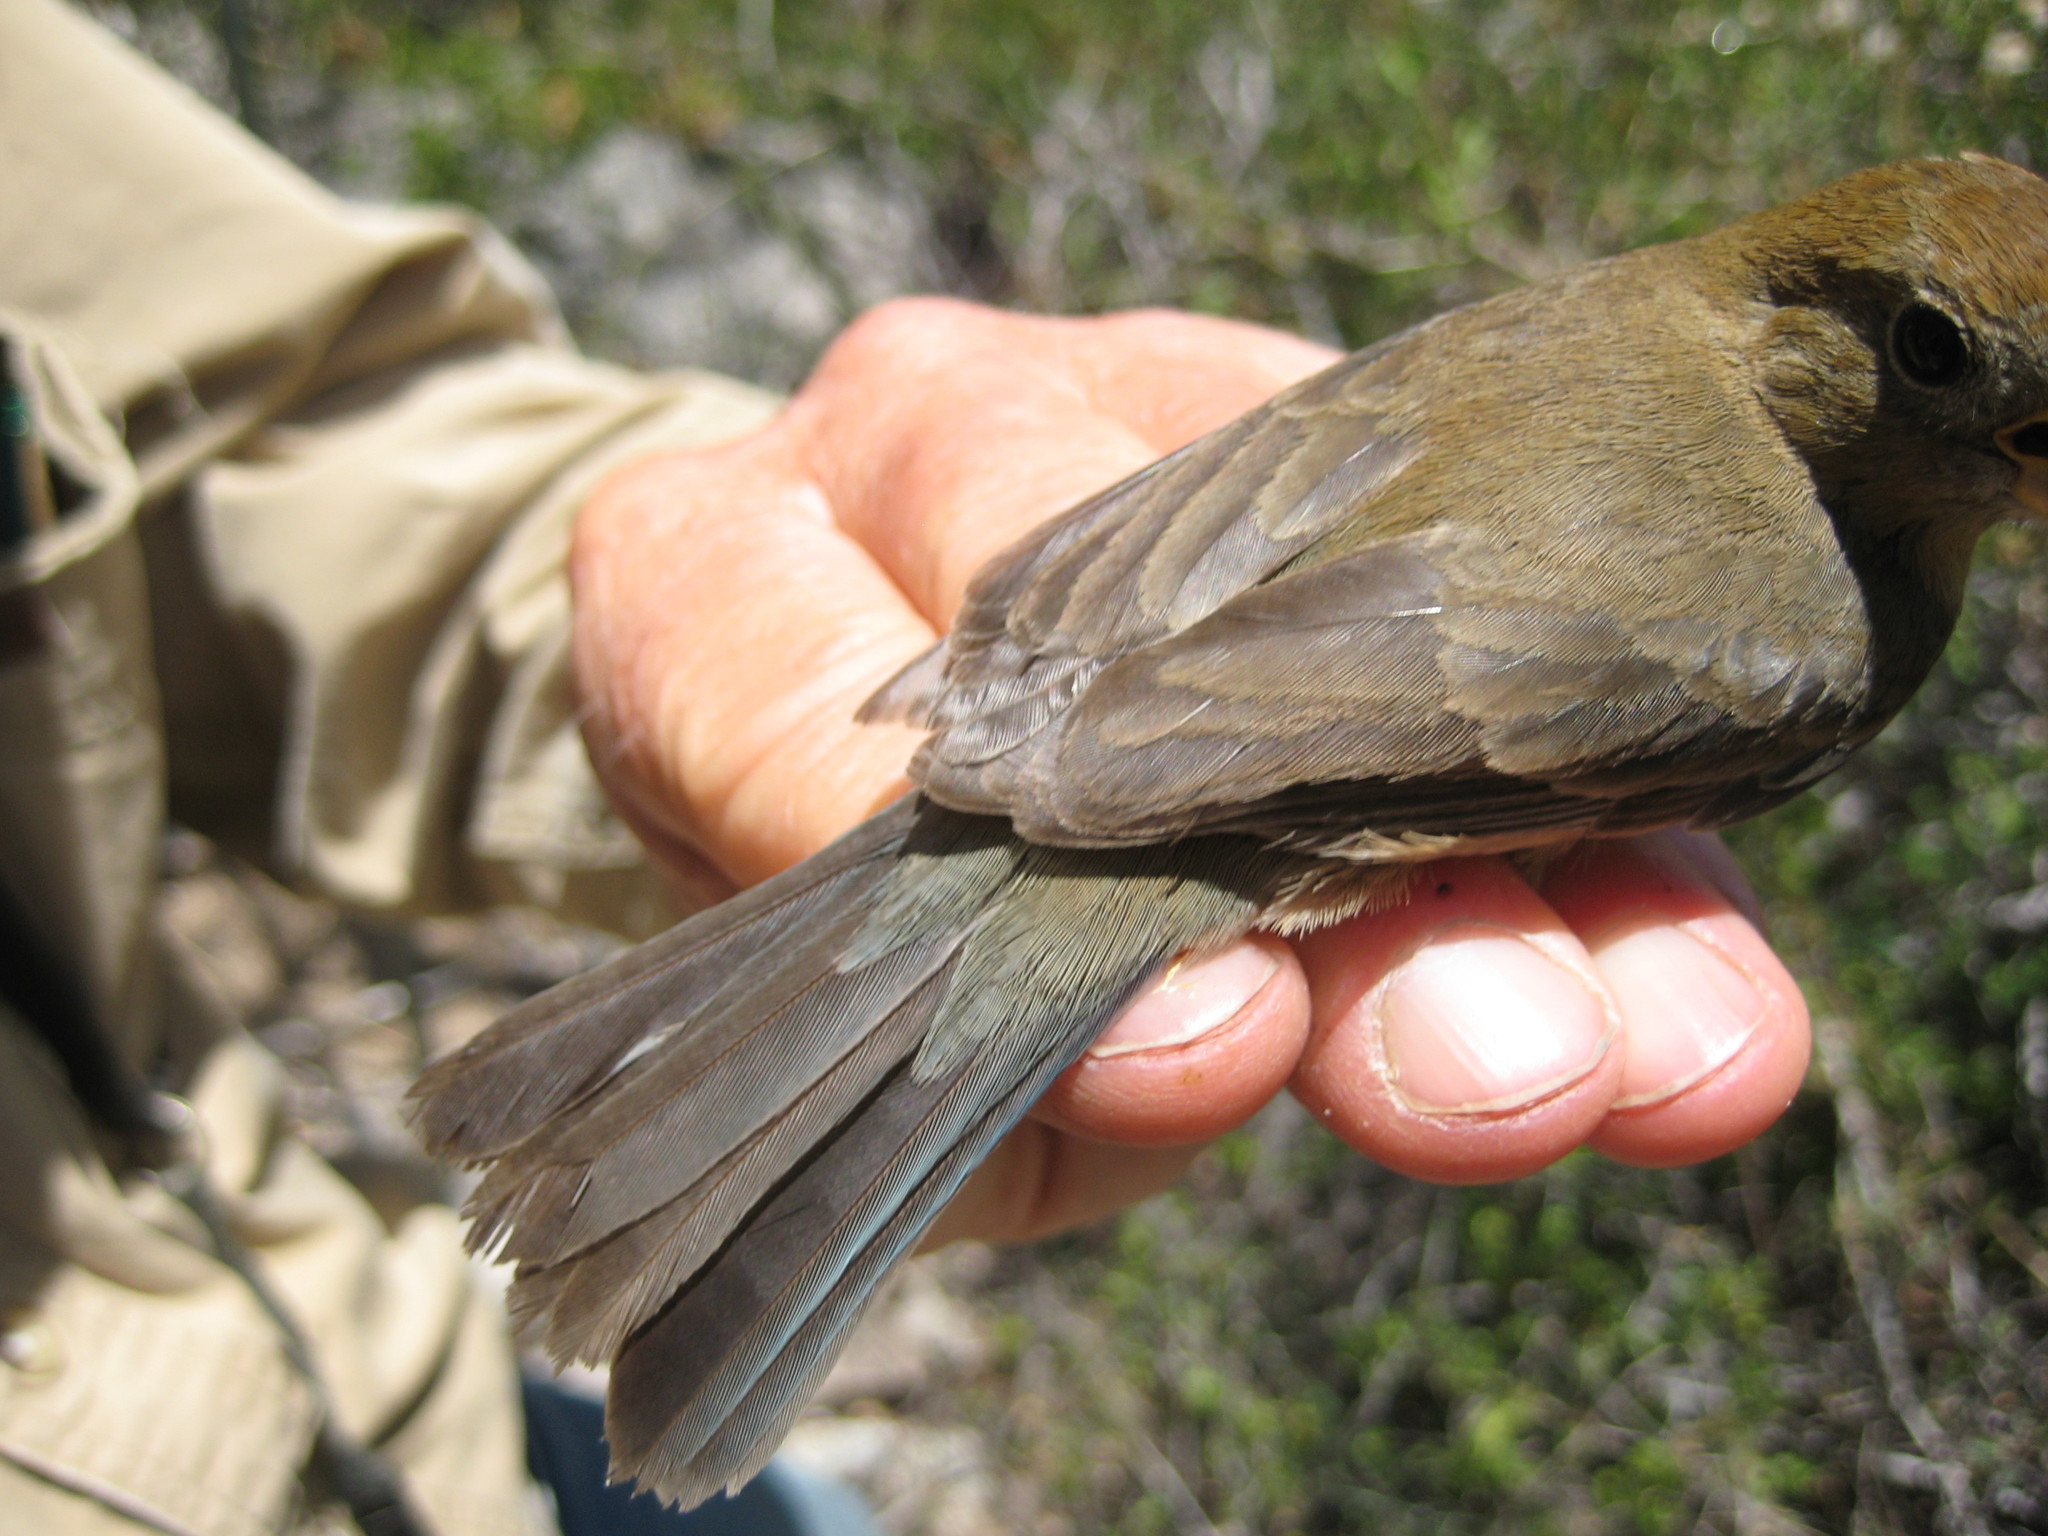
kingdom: Animalia
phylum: Chordata
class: Aves
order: Passeriformes
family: Cardinalidae
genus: Passerina
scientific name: Passerina versicolor
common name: Varied bunting
